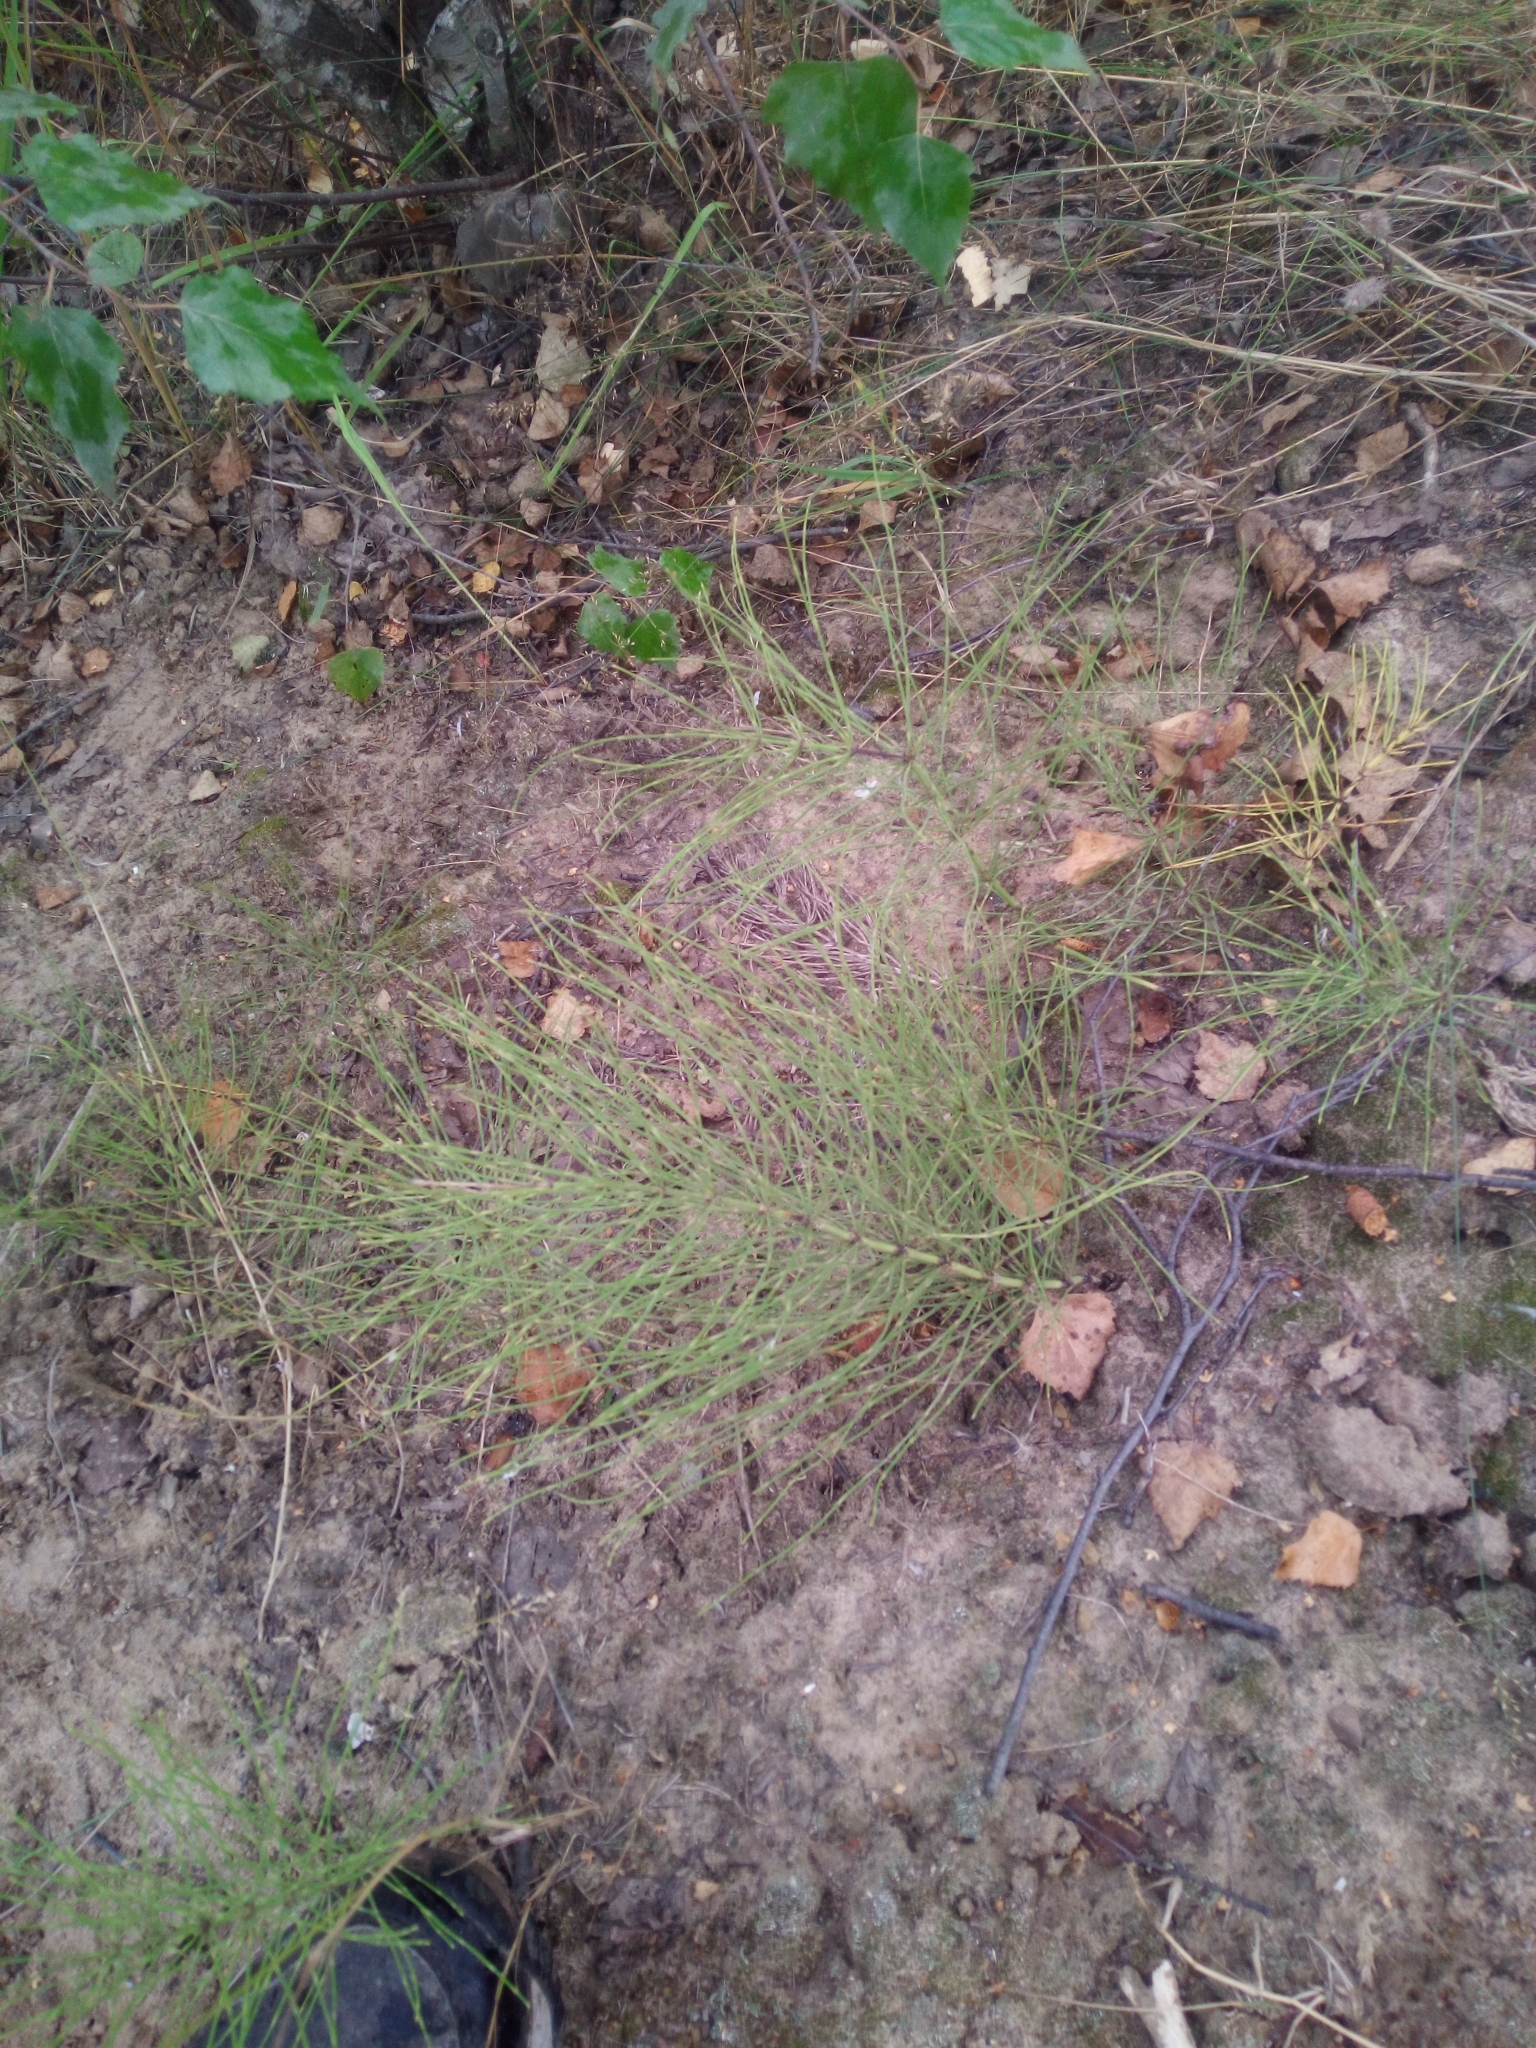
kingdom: Plantae
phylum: Tracheophyta
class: Polypodiopsida
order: Equisetales
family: Equisetaceae
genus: Equisetum
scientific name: Equisetum arvense
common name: Field horsetail
